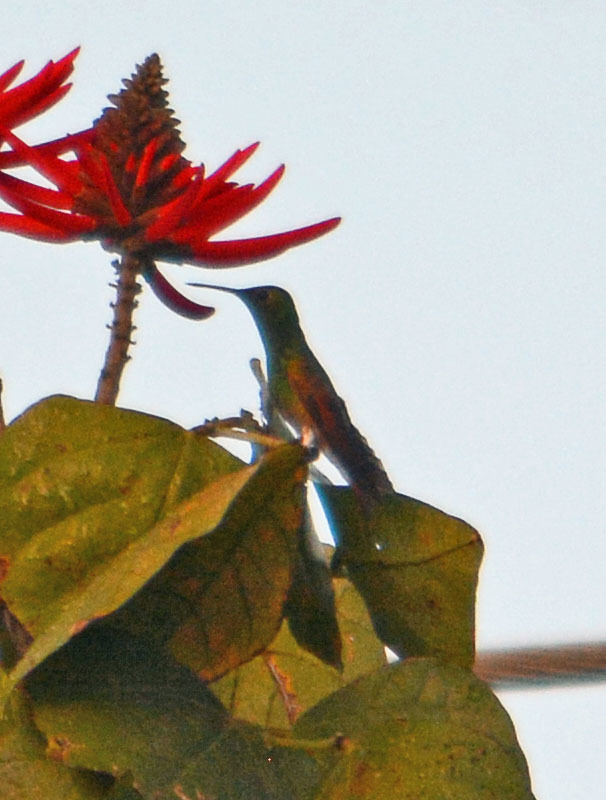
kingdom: Animalia
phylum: Chordata
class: Aves
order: Apodiformes
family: Trochilidae
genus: Saucerottia
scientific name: Saucerottia beryllina
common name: Berylline hummingbird
